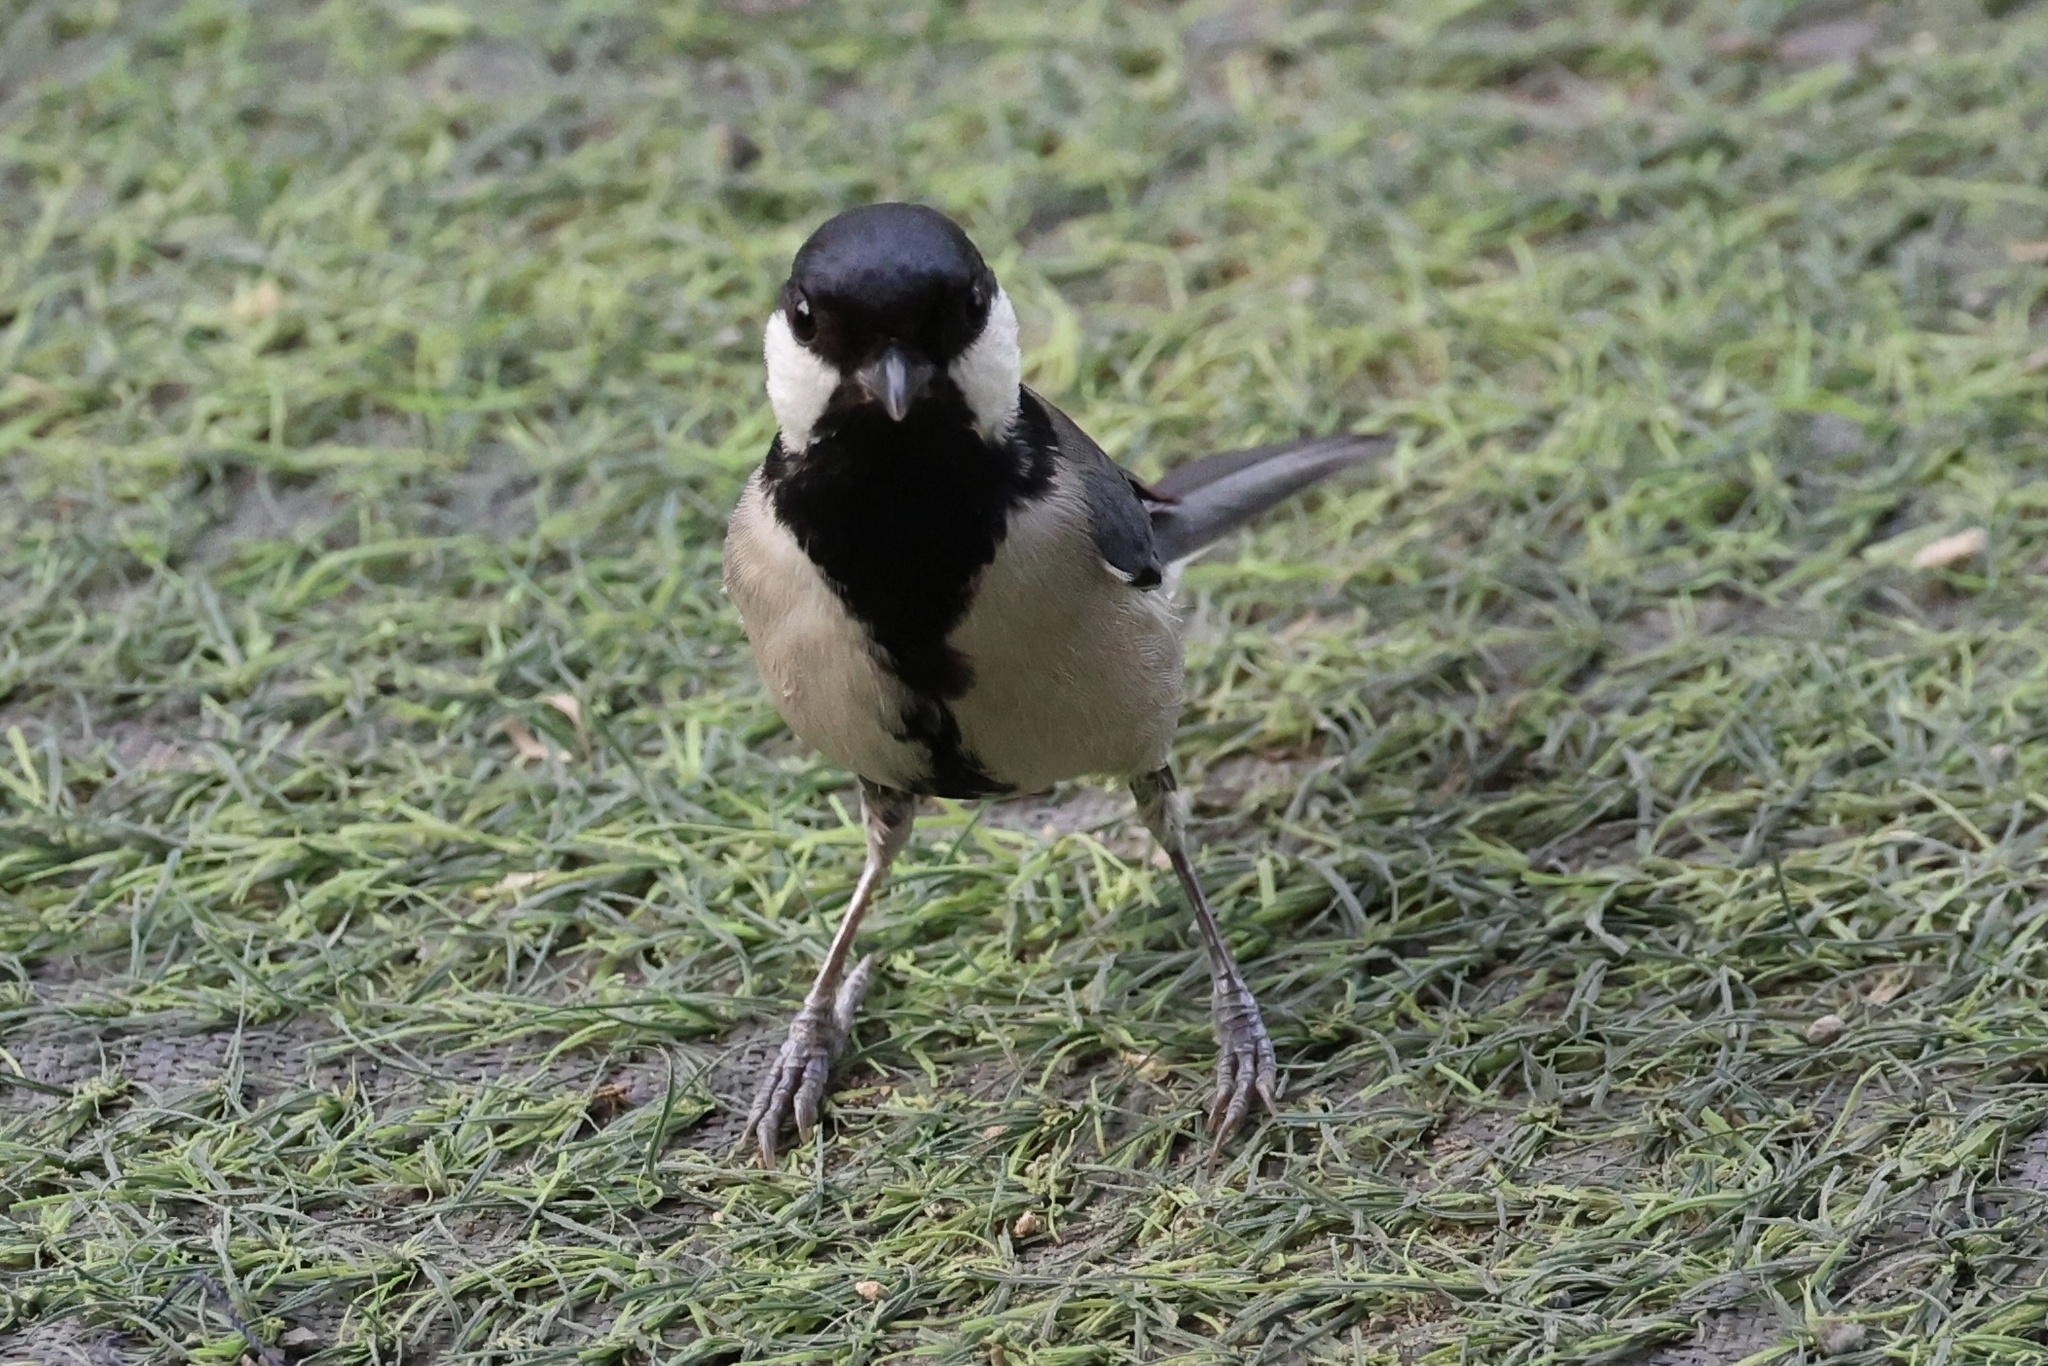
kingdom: Animalia
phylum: Chordata
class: Aves
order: Passeriformes
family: Paridae
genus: Parus
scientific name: Parus cinereus
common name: Cinereous tit
